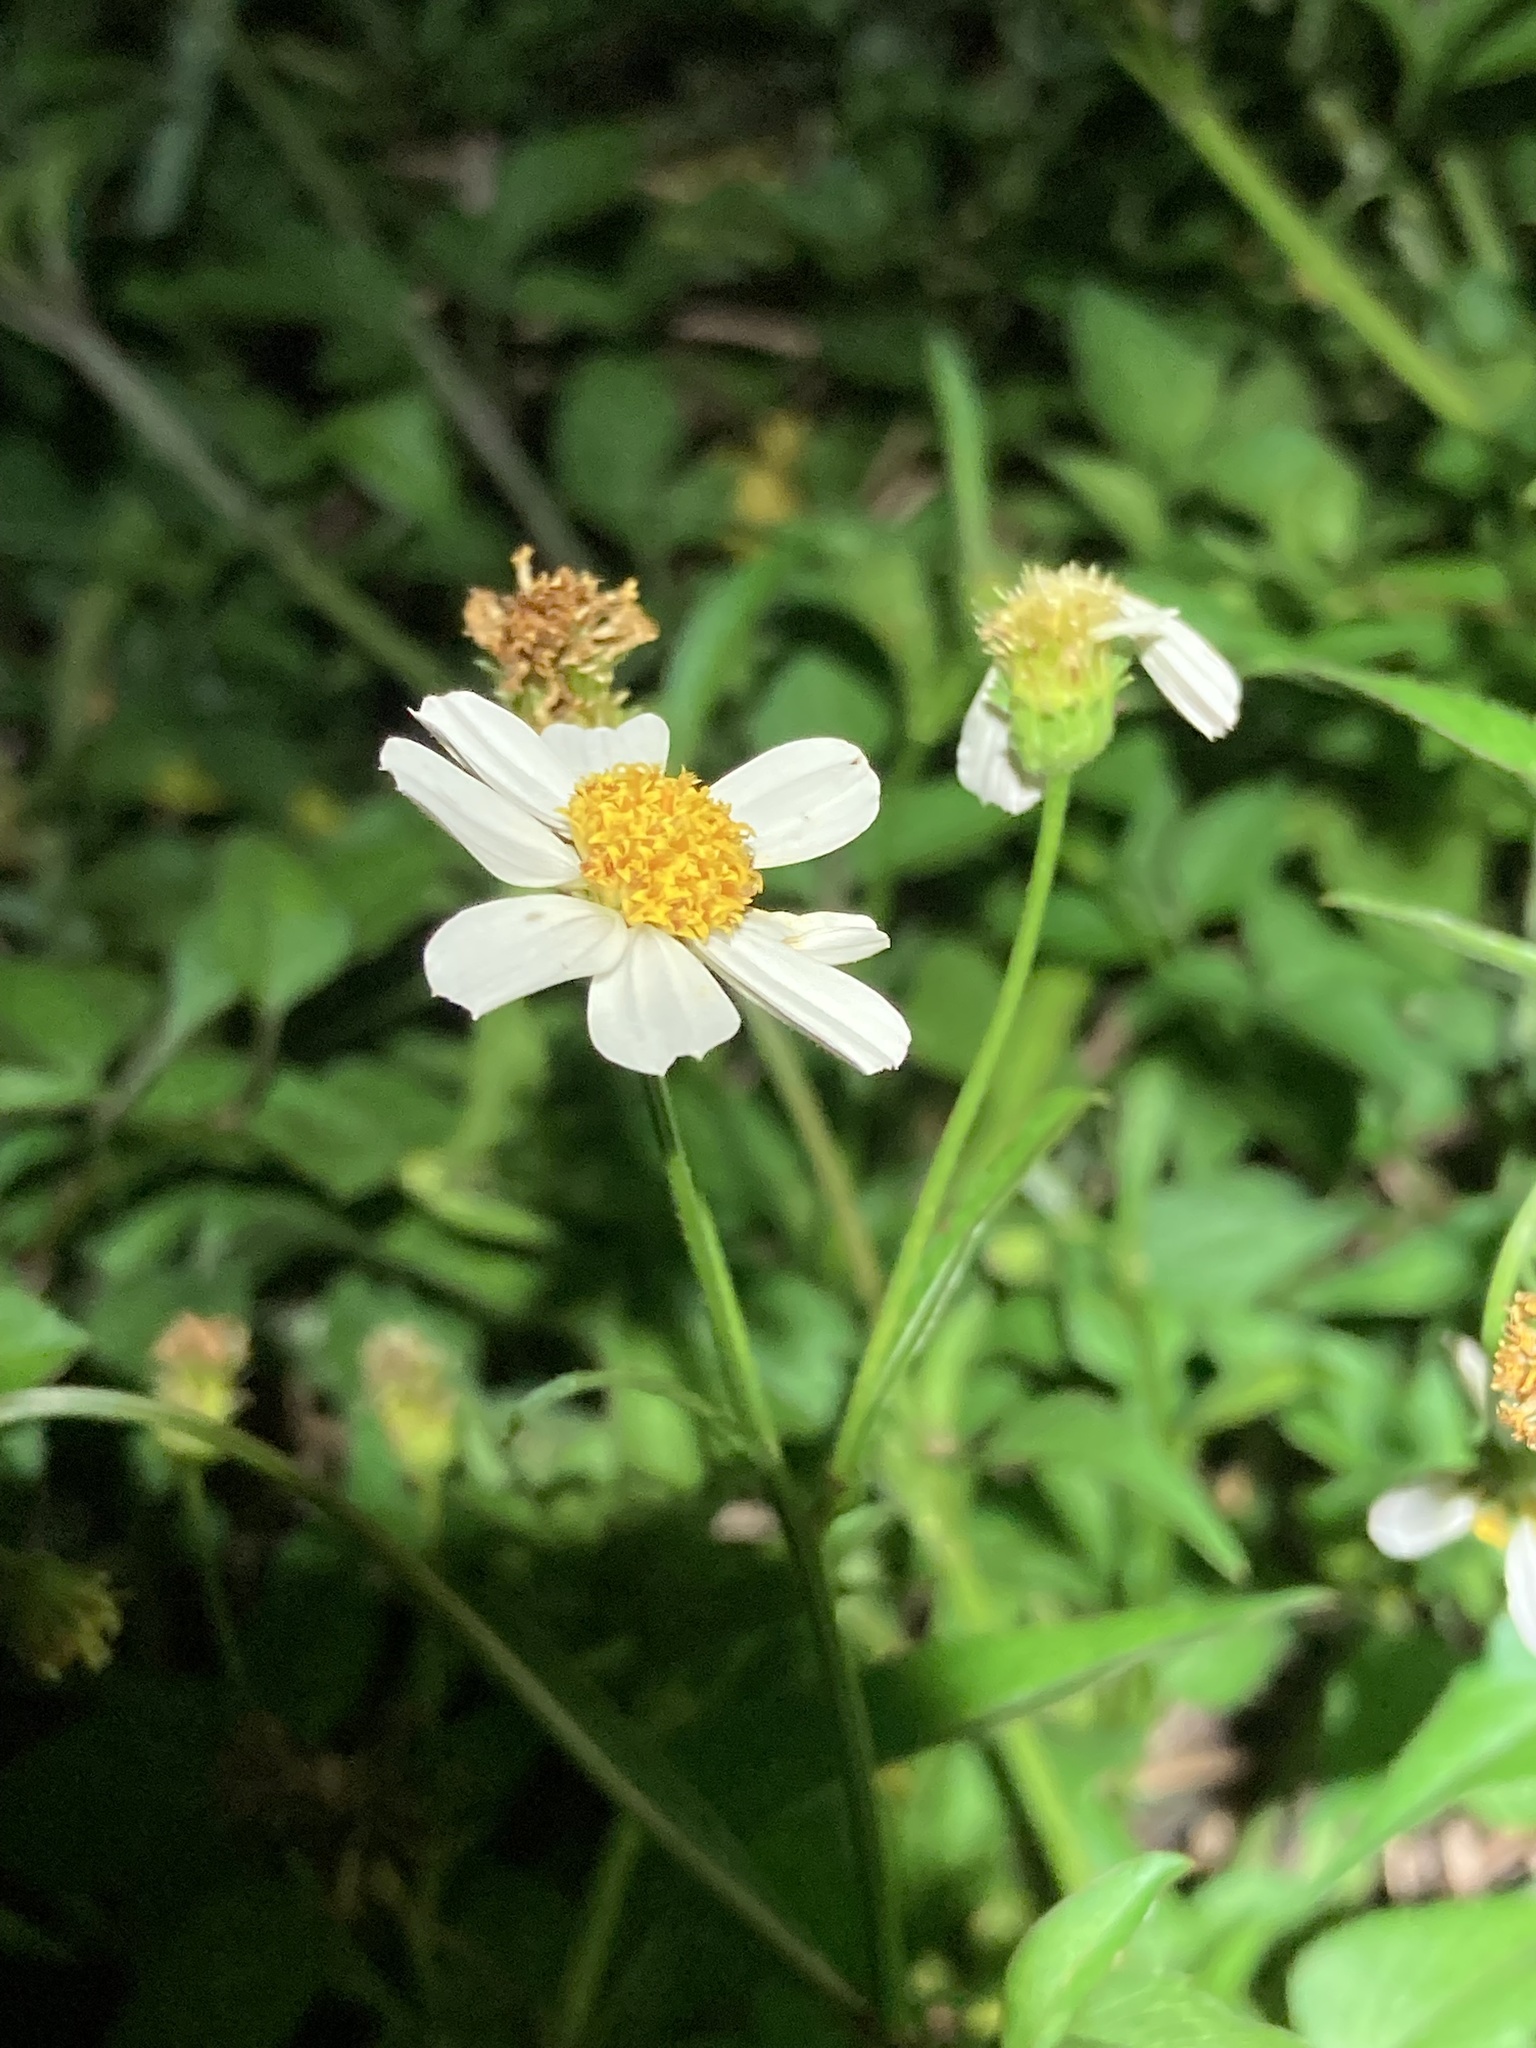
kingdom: Plantae
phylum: Tracheophyta
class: Magnoliopsida
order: Asterales
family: Asteraceae
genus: Bidens
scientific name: Bidens alba
